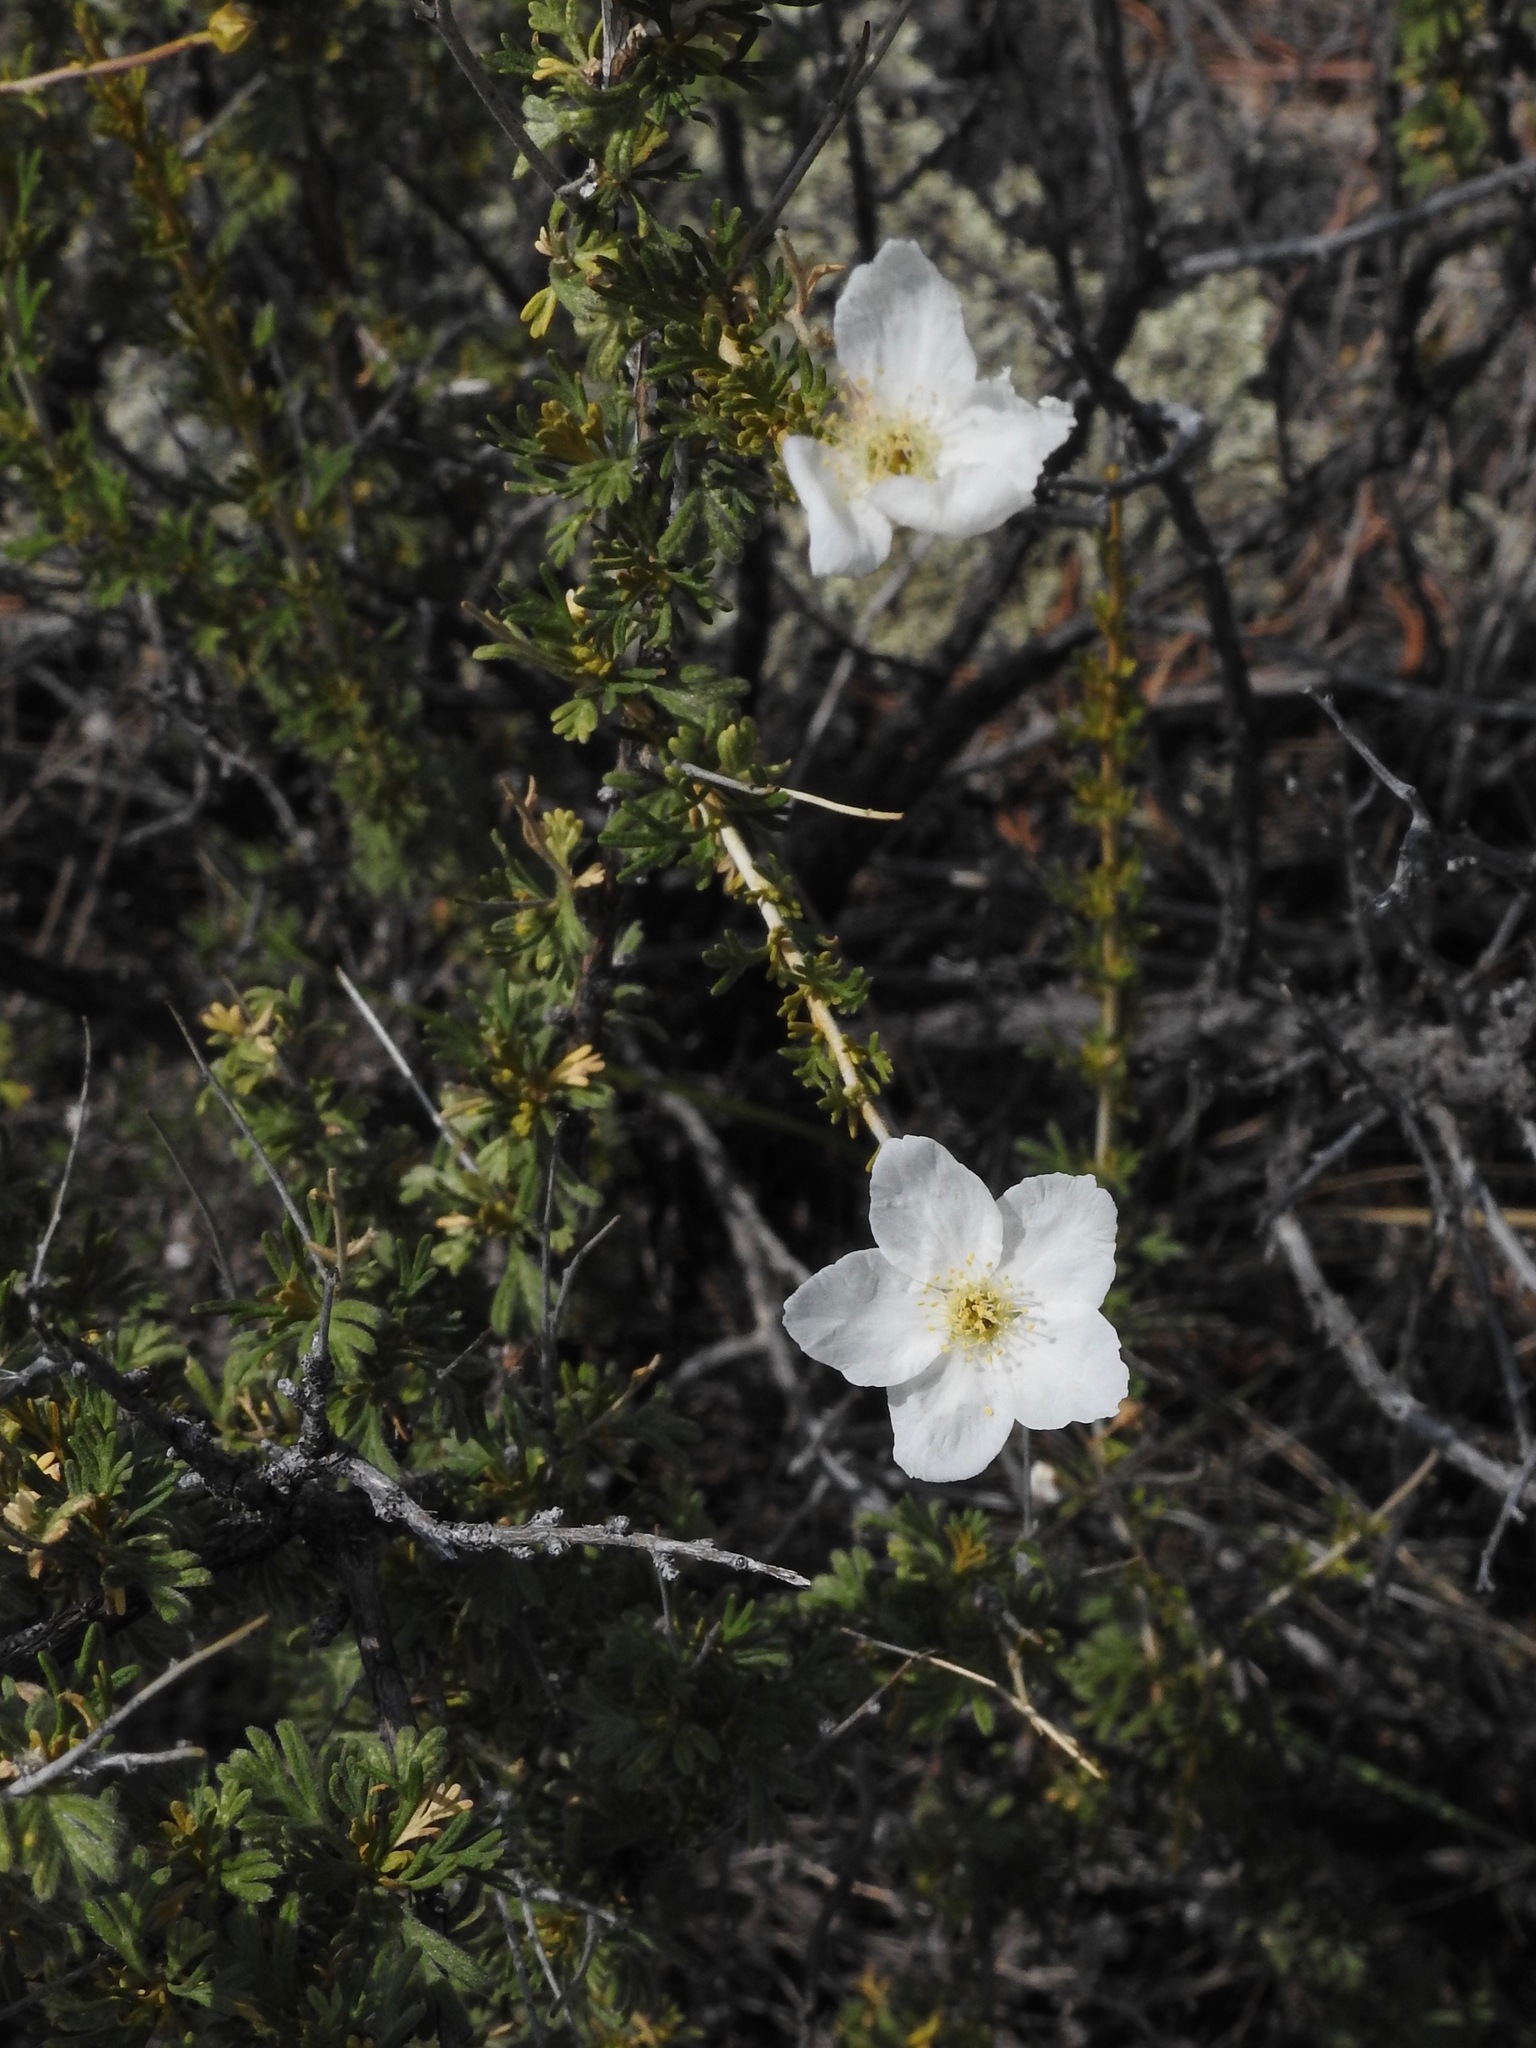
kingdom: Plantae
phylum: Tracheophyta
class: Magnoliopsida
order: Rosales
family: Rosaceae
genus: Fallugia
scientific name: Fallugia paradoxa
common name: Apache-plume
